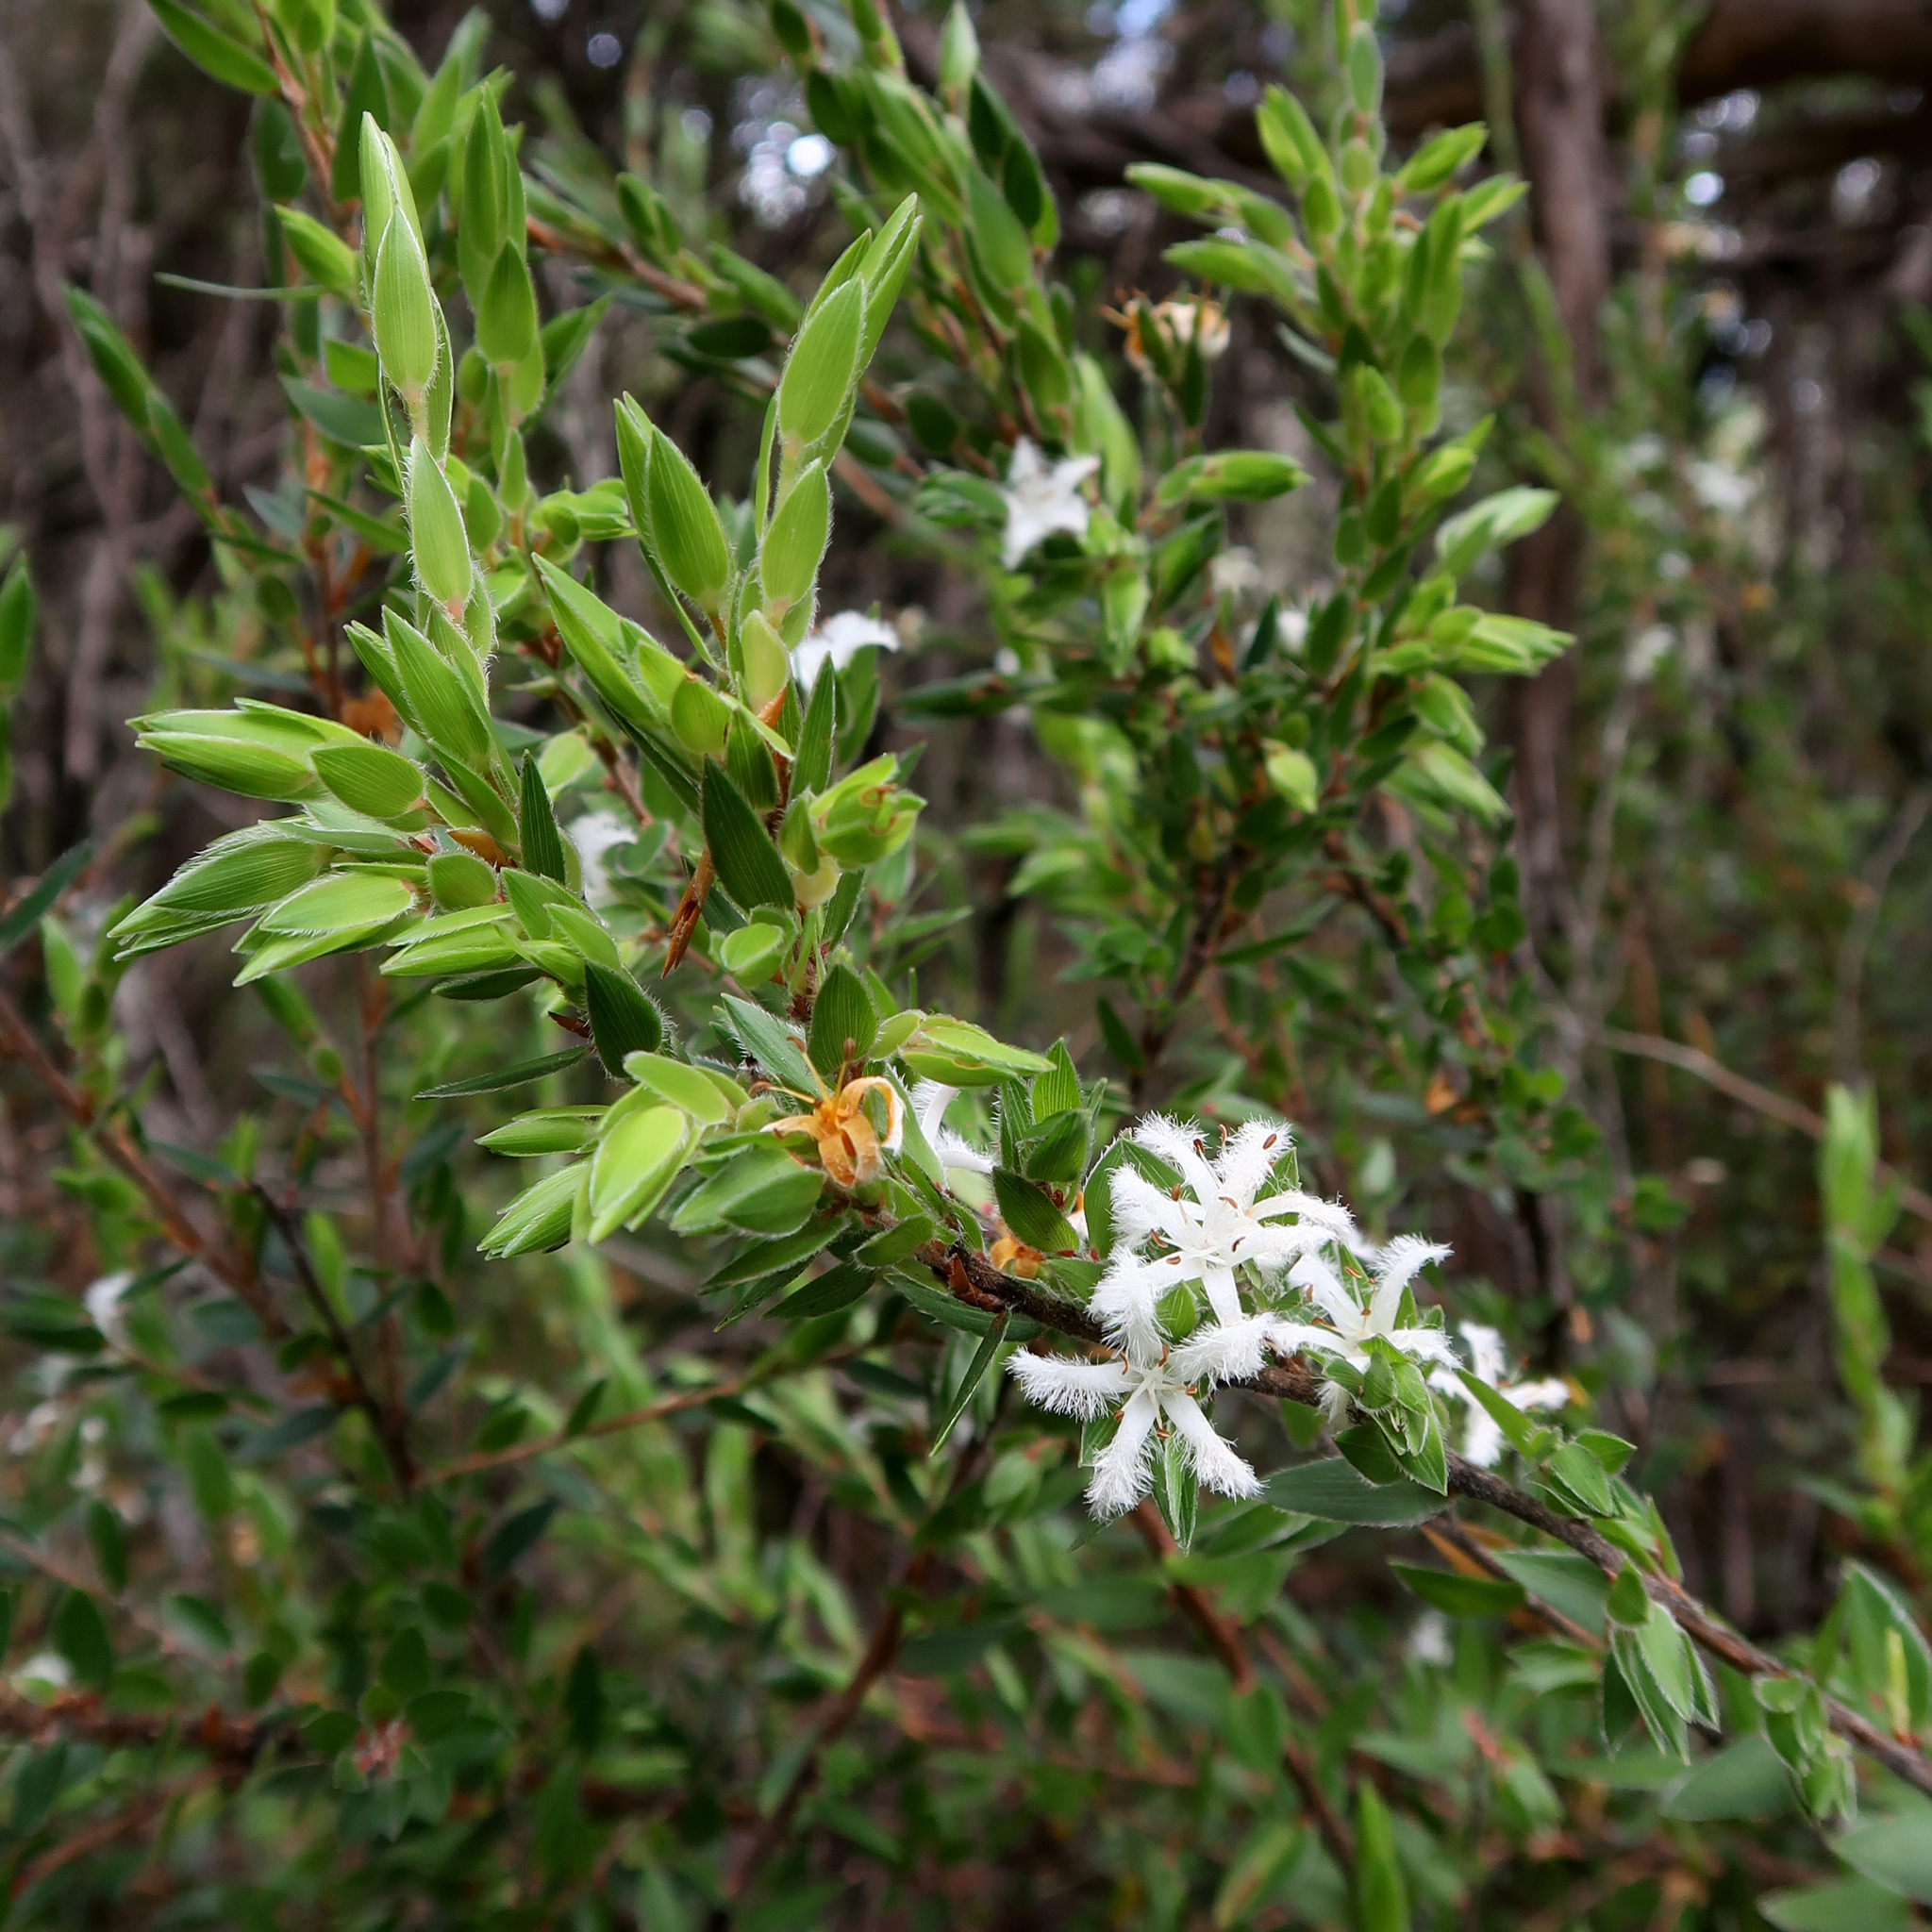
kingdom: Plantae
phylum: Tracheophyta
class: Magnoliopsida
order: Ericales
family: Ericaceae
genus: Pentachondra
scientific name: Pentachondra involucrata
